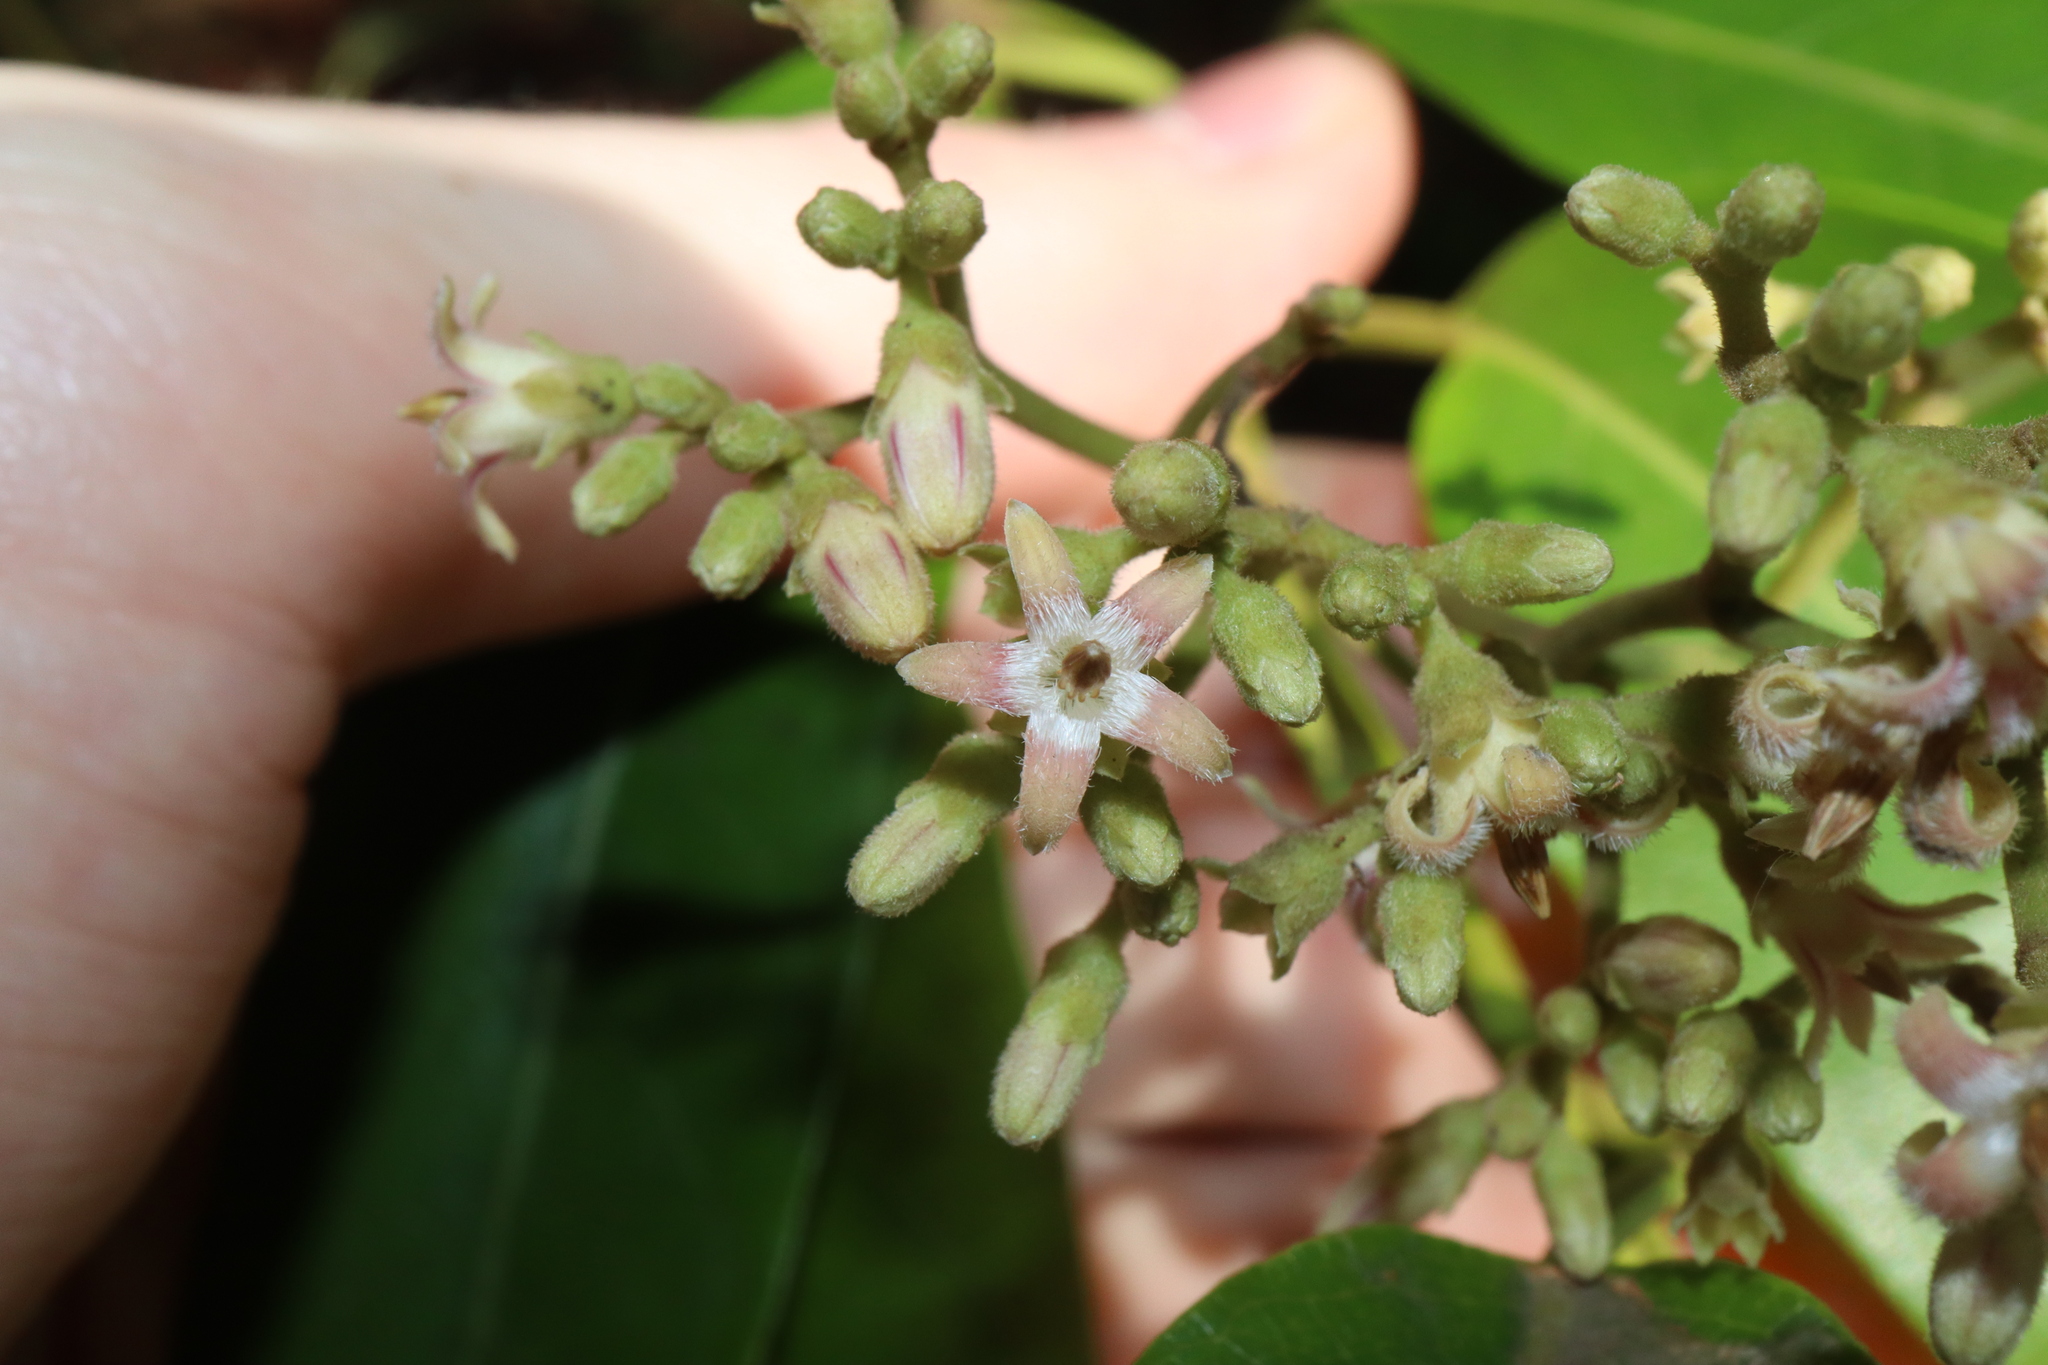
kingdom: Plantae
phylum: Tracheophyta
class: Magnoliopsida
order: Gentianales
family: Apocynaceae
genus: Parsonsia
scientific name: Parsonsia straminea
